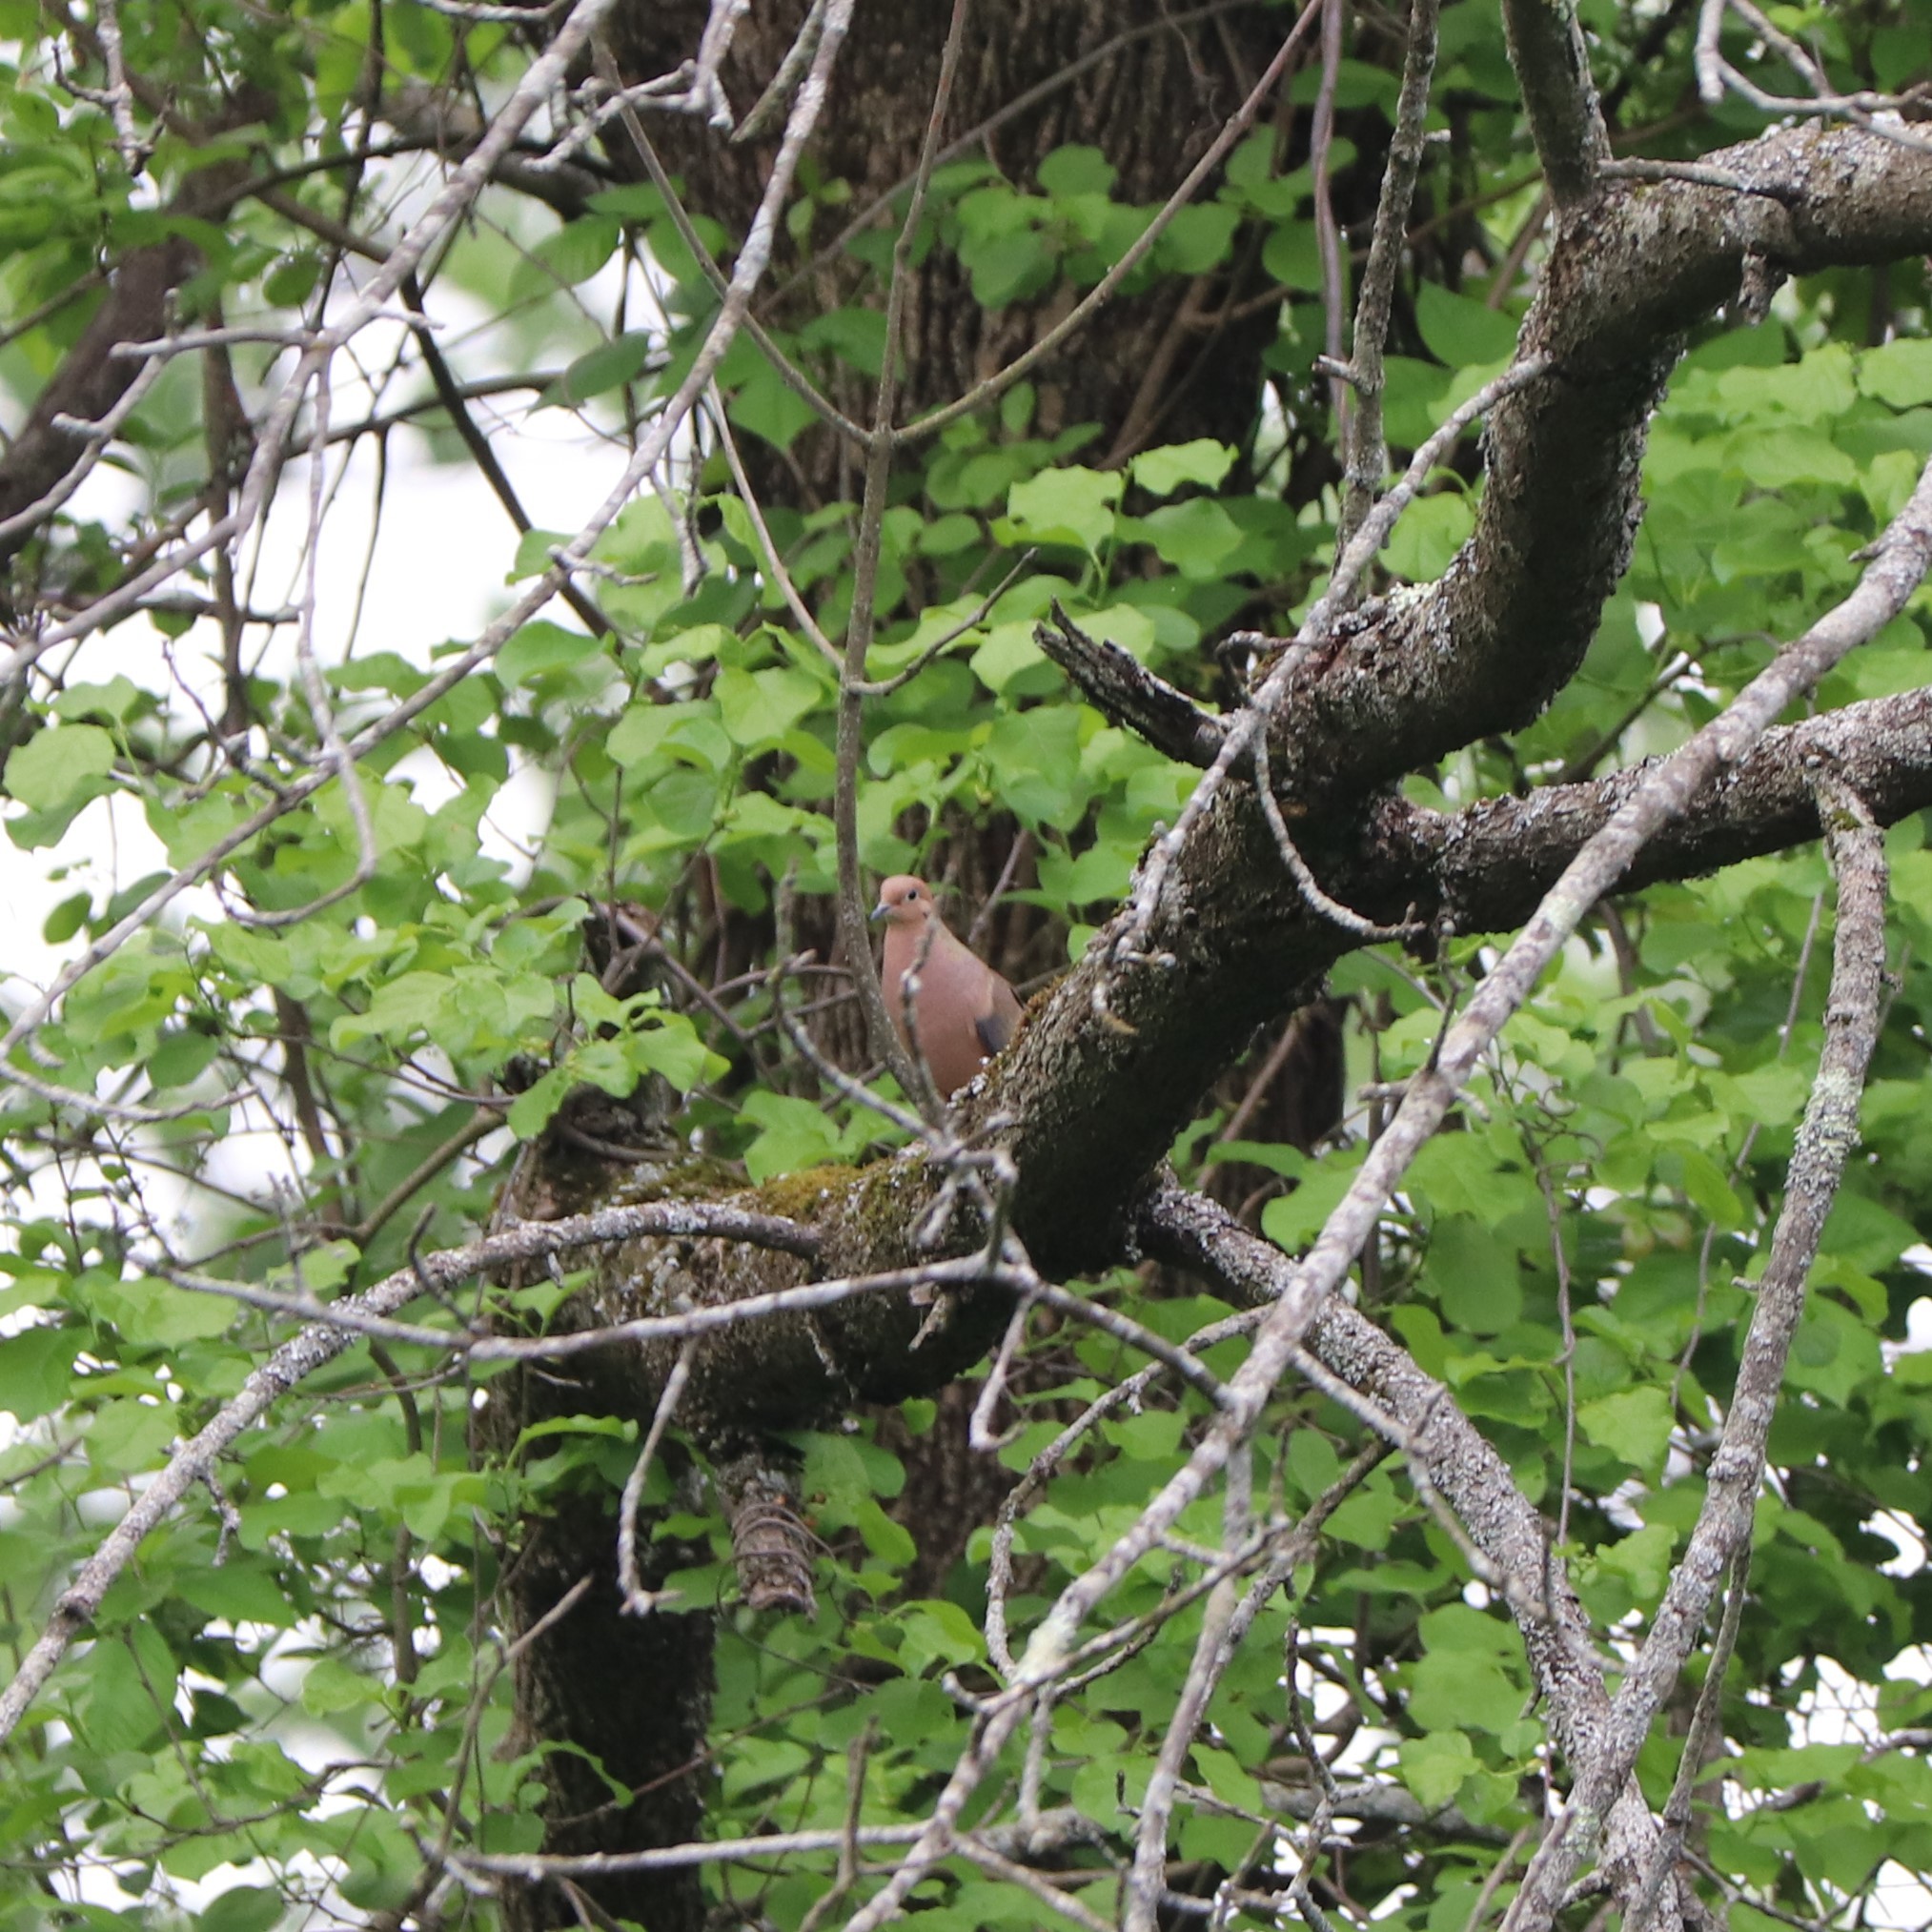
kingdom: Animalia
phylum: Chordata
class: Aves
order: Columbiformes
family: Columbidae
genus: Zenaida
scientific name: Zenaida macroura
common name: Mourning dove
